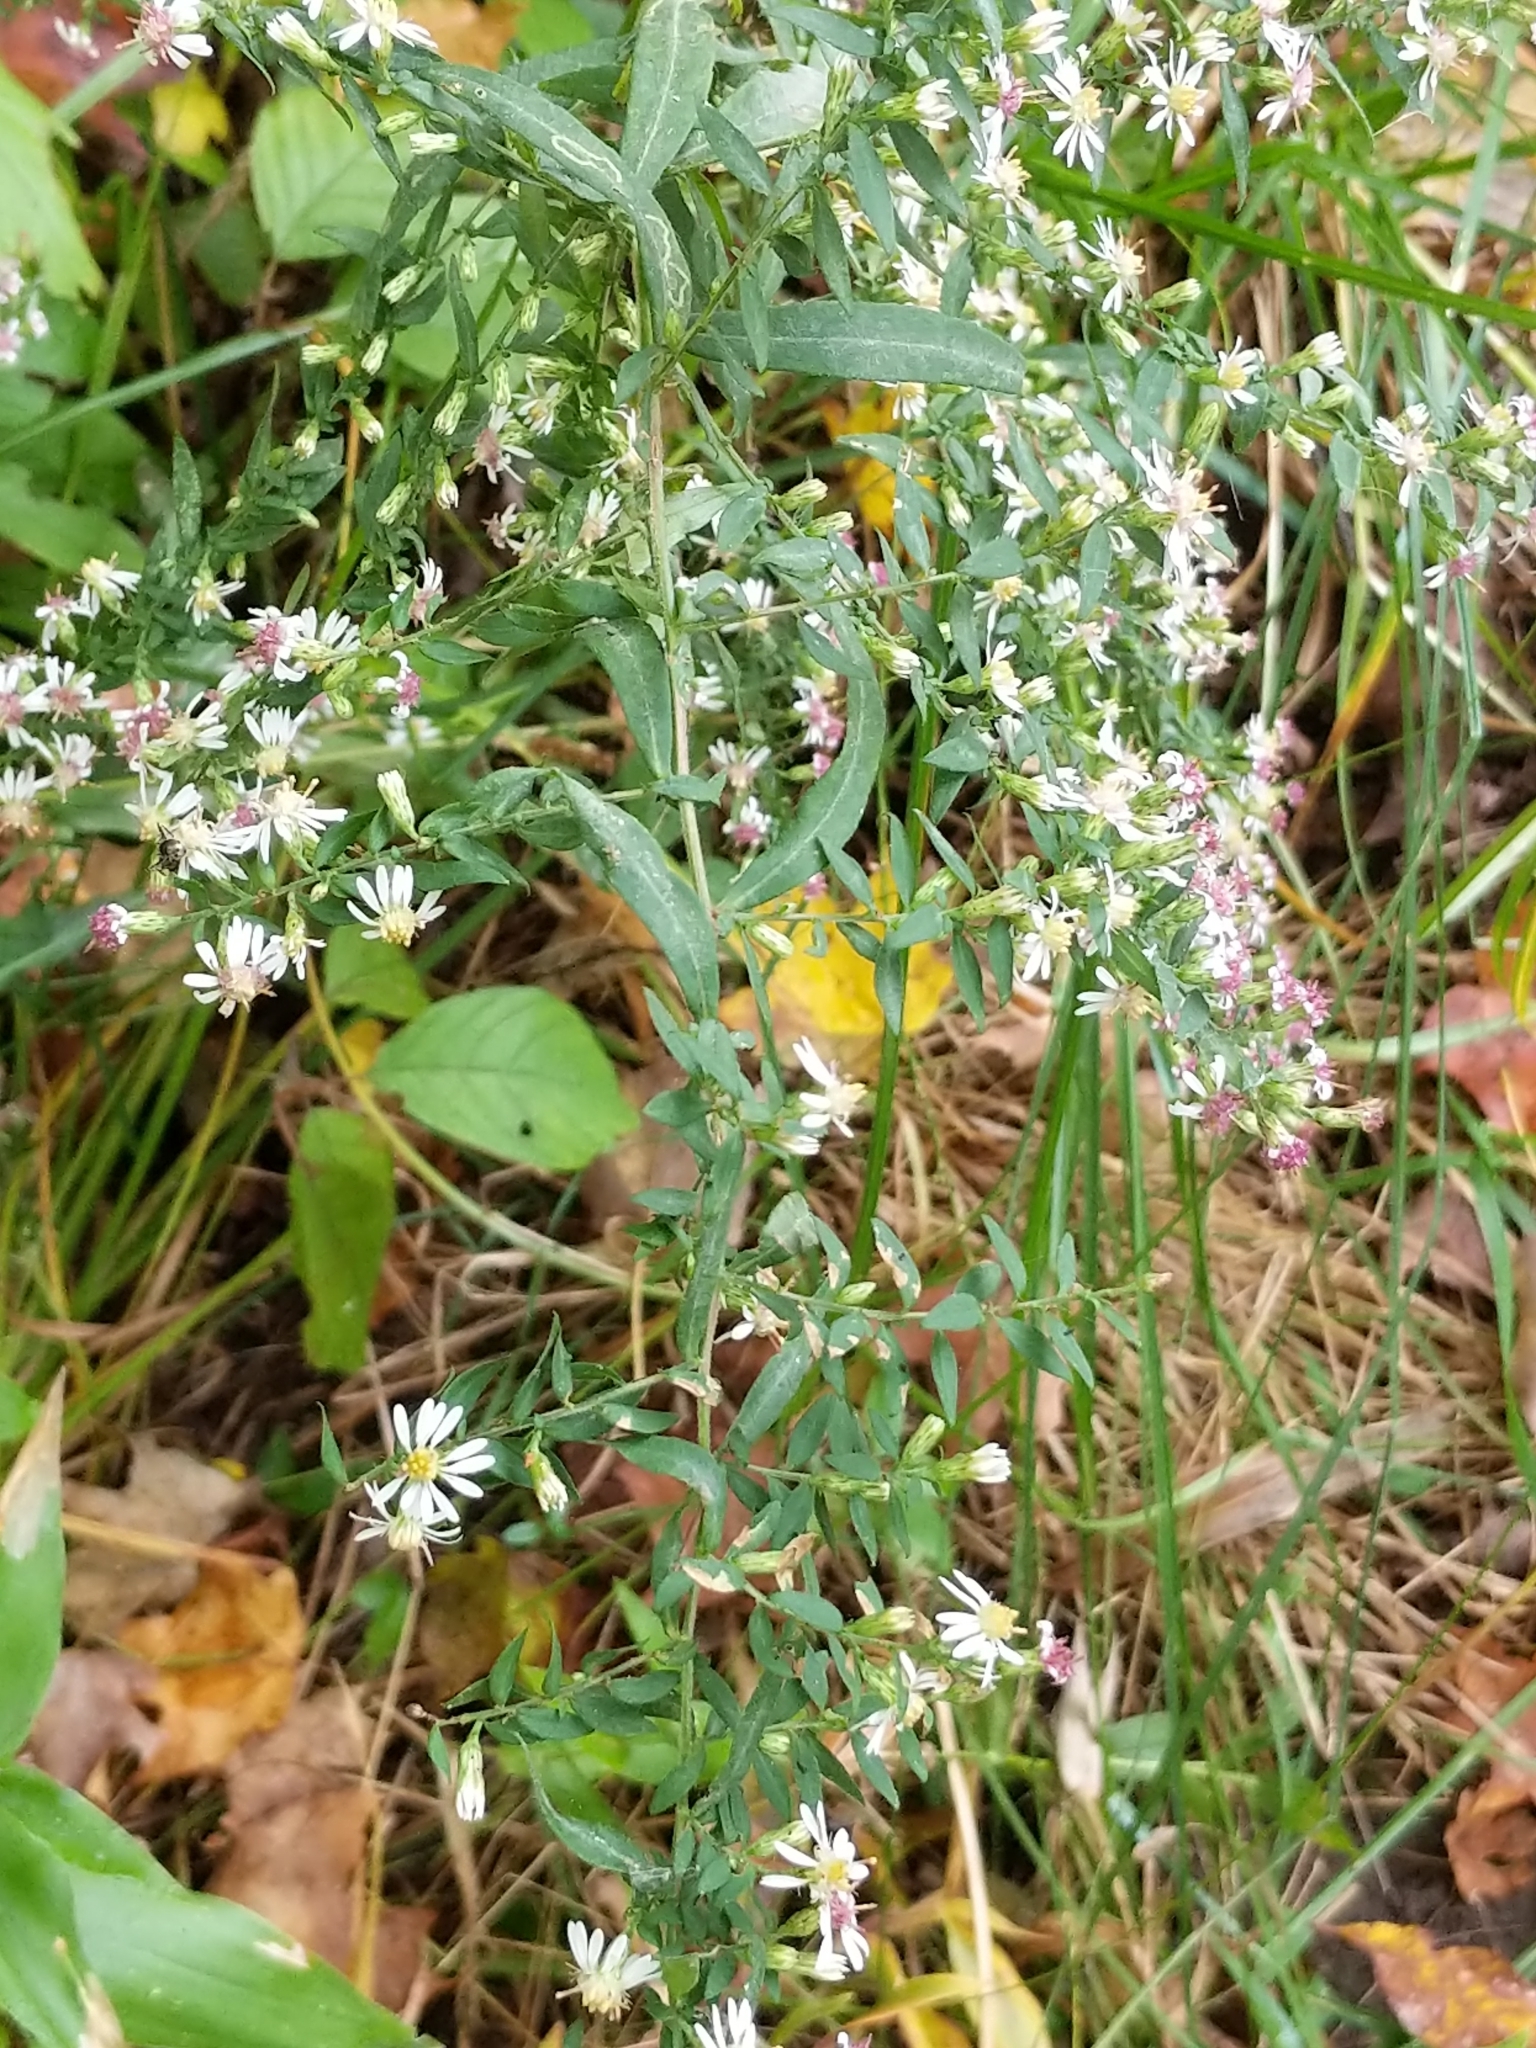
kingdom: Plantae
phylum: Tracheophyta
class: Magnoliopsida
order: Asterales
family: Asteraceae
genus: Symphyotrichum
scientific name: Symphyotrichum lateriflorum
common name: Calico aster
